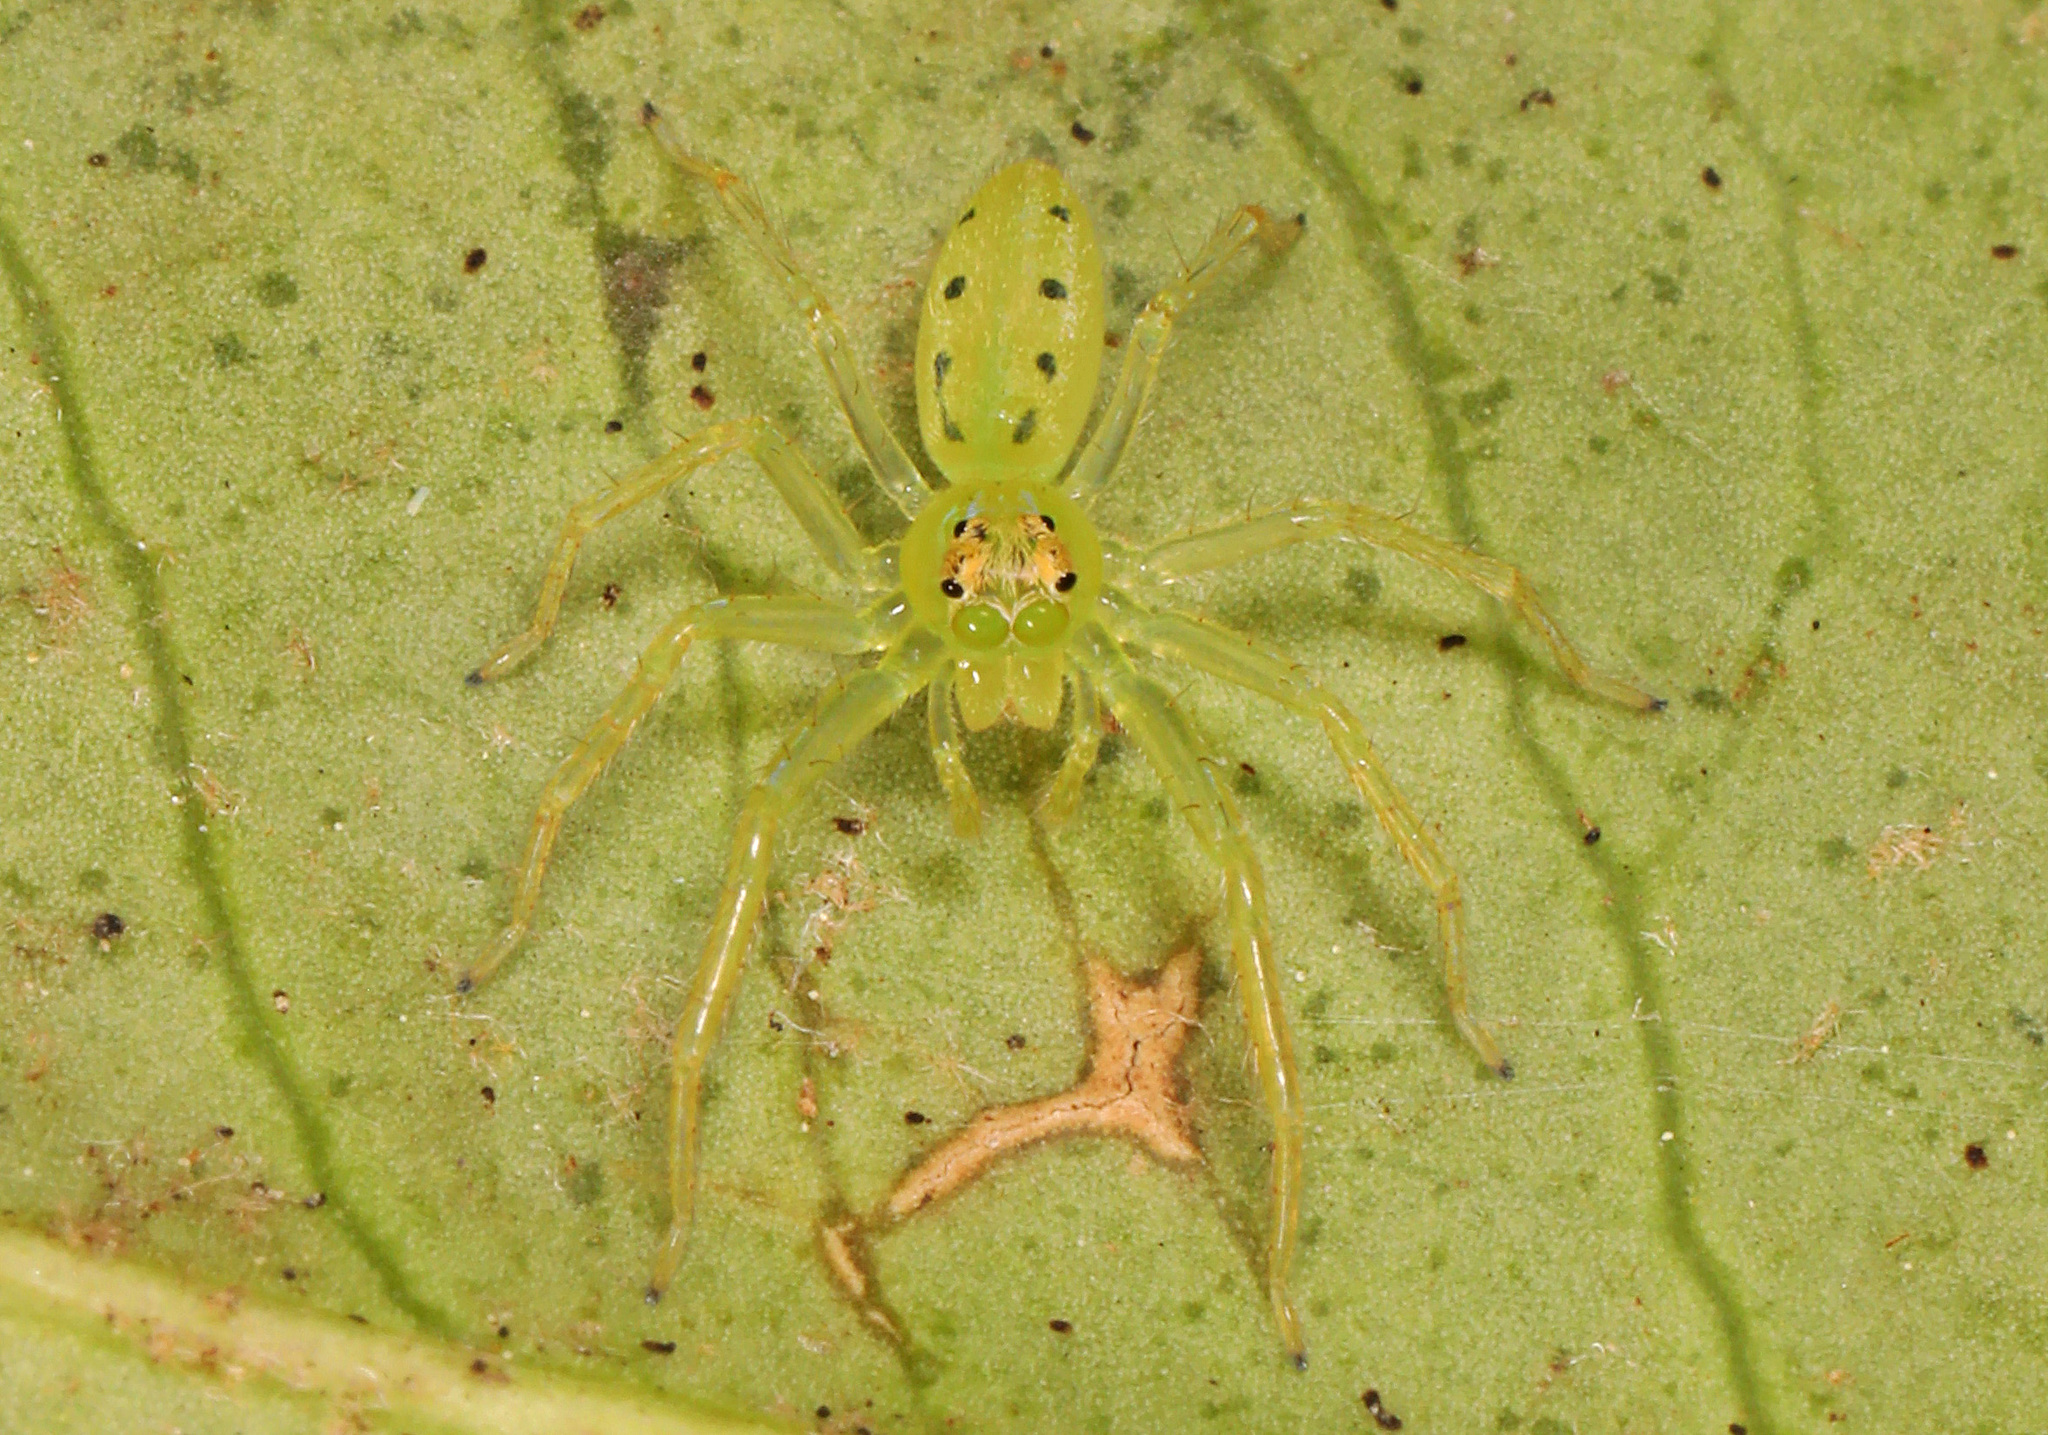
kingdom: Animalia
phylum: Arthropoda
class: Arachnida
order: Araneae
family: Salticidae
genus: Lyssomanes
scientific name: Lyssomanes viridis
